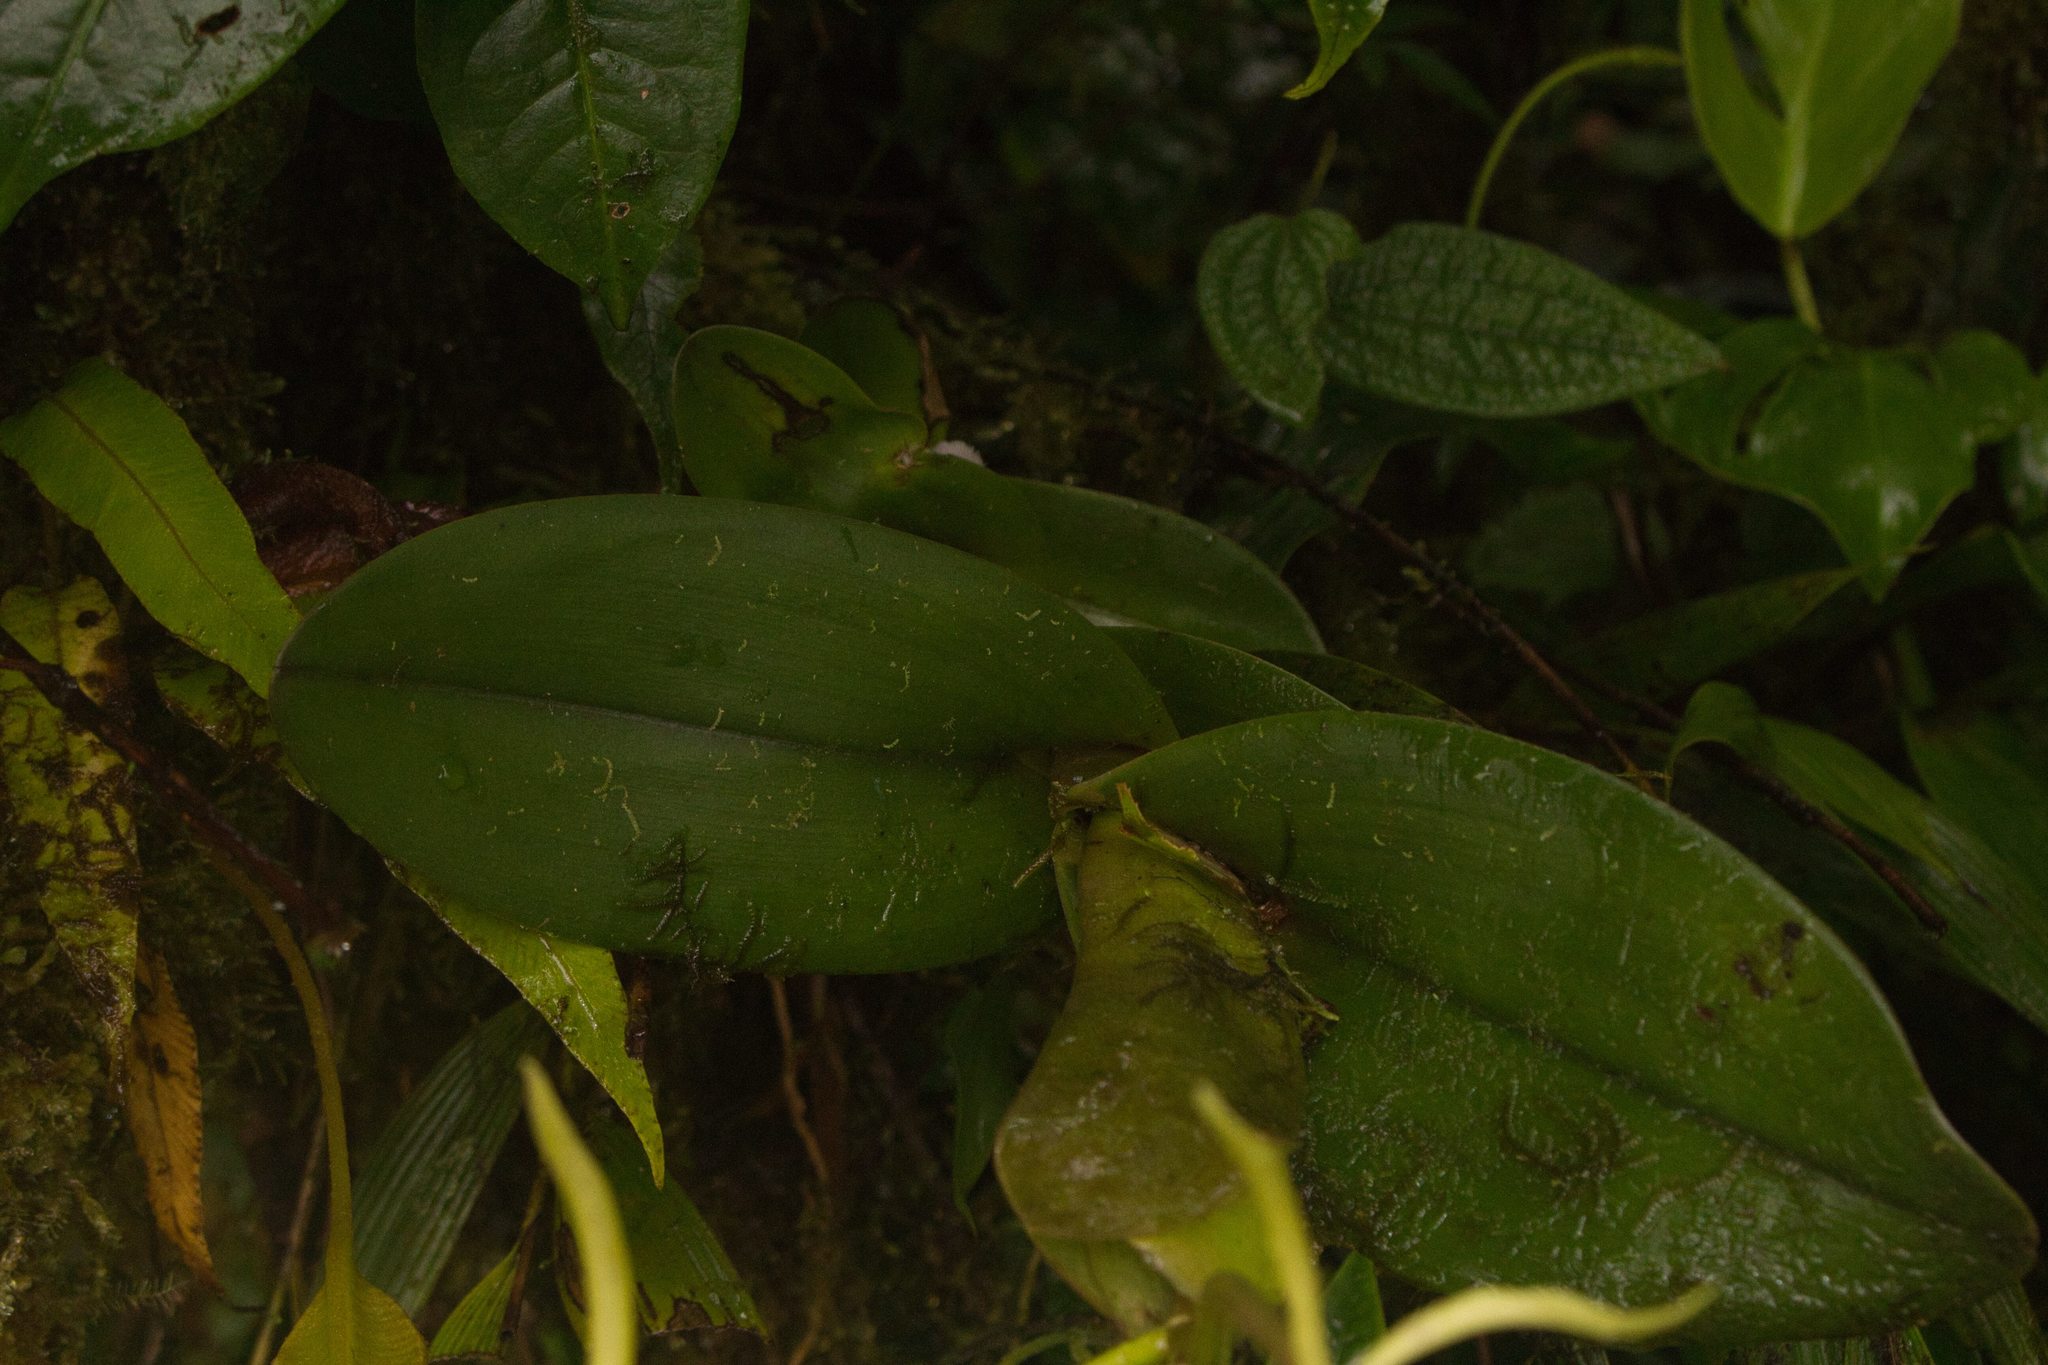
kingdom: Plantae
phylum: Tracheophyta
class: Liliopsida
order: Asparagales
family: Orchidaceae
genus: Epidendrum
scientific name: Epidendrum lacustre
